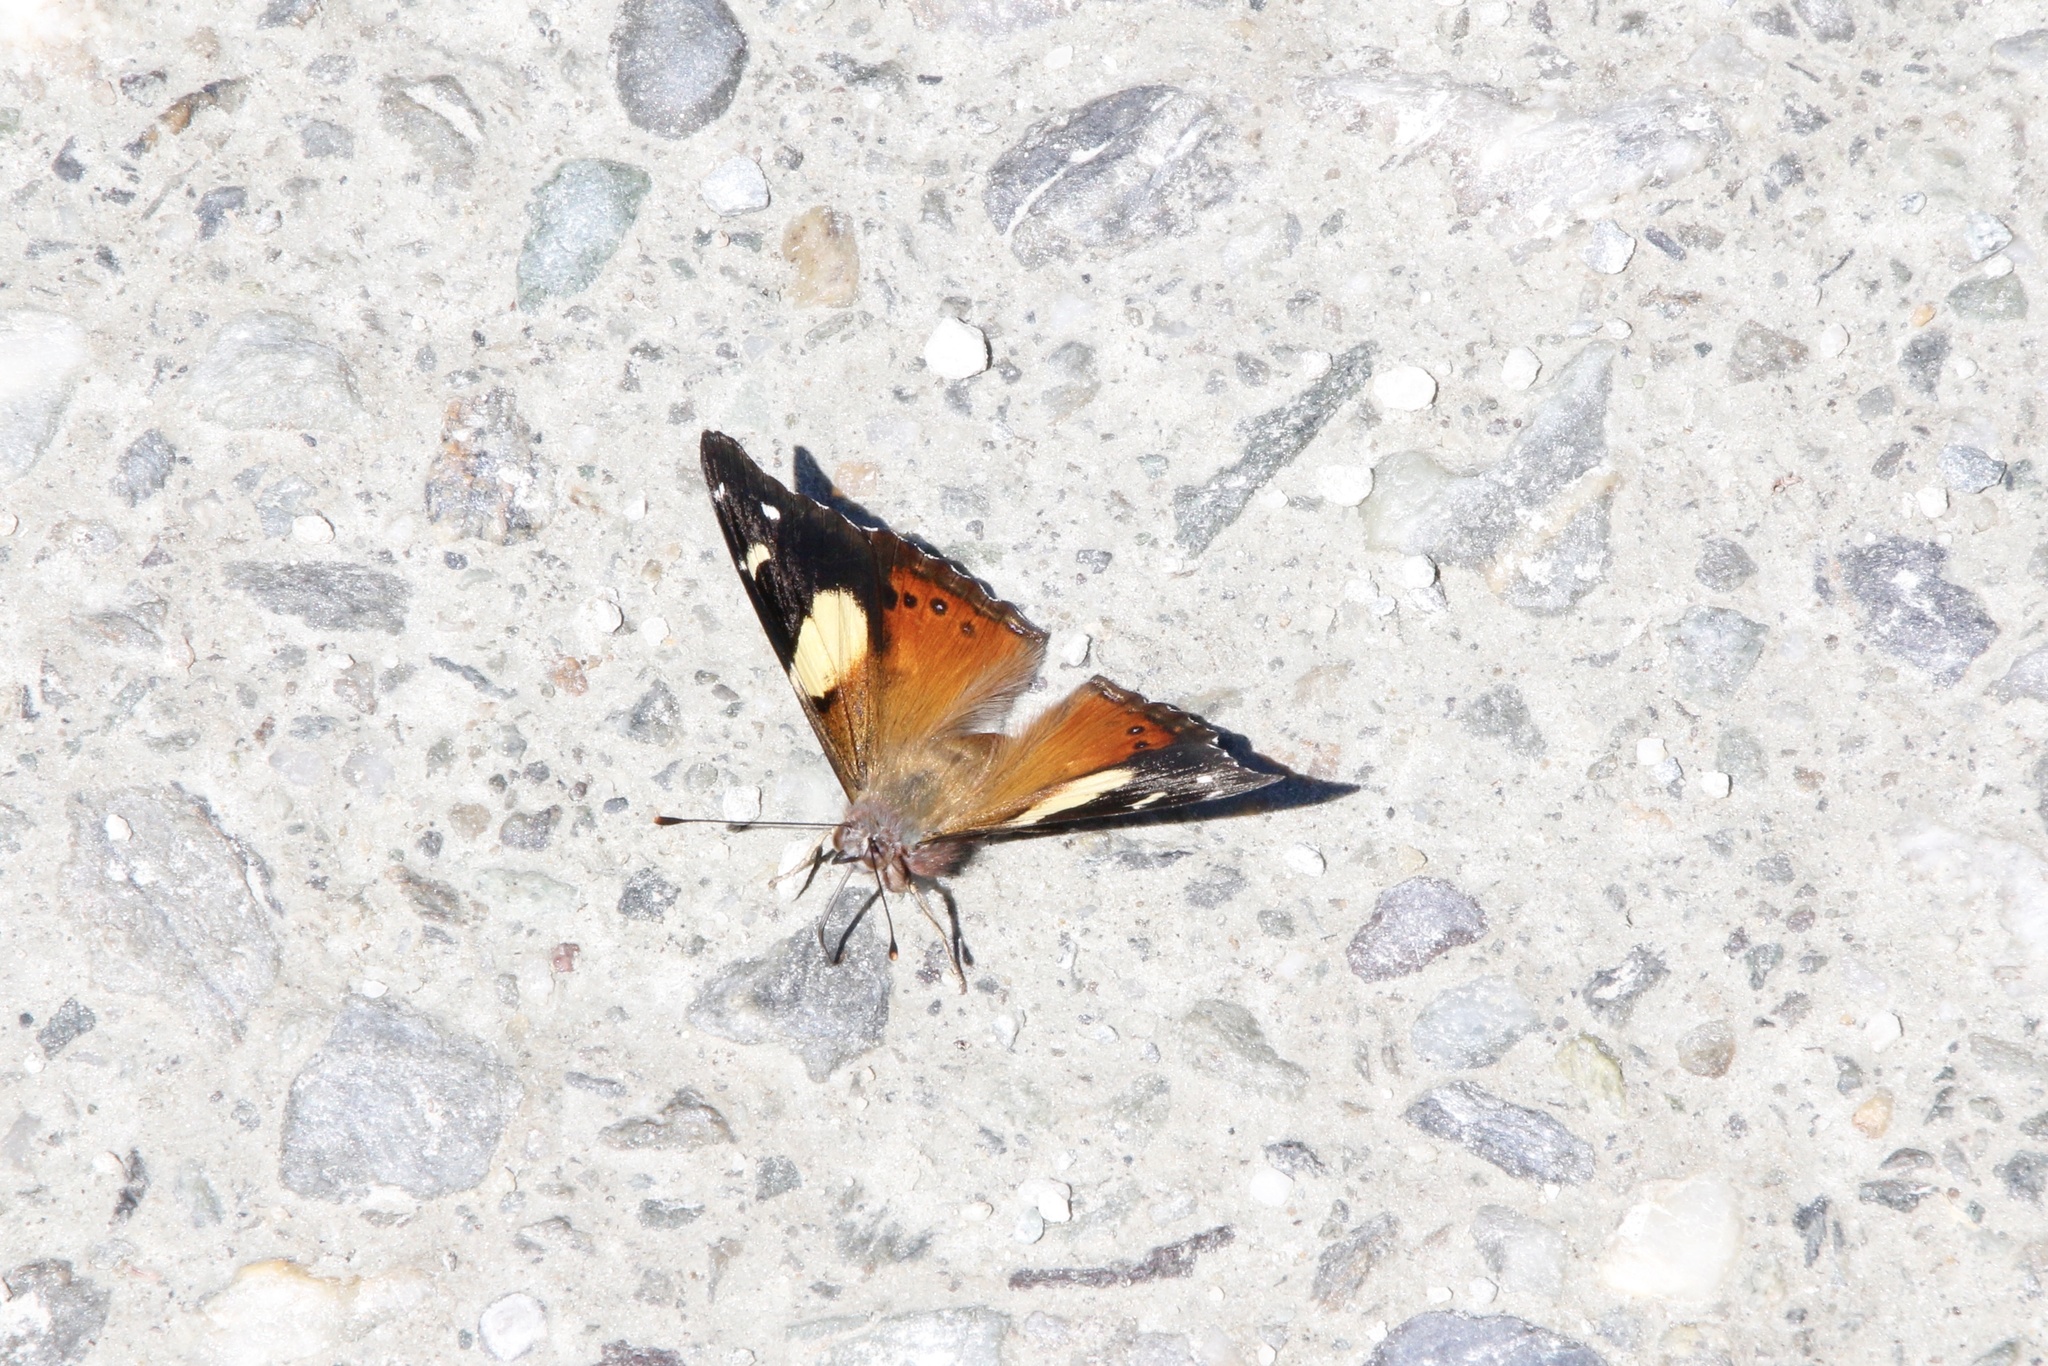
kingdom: Animalia
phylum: Arthropoda
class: Insecta
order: Lepidoptera
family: Nymphalidae
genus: Vanessa
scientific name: Vanessa itea
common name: Yellow admiral
